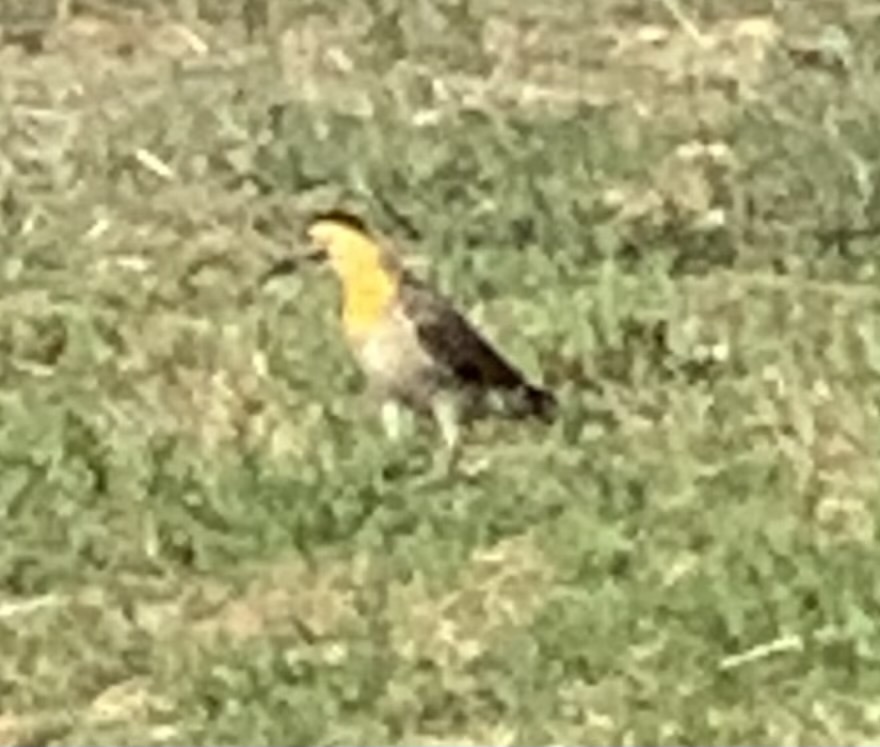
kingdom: Animalia
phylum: Chordata
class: Aves
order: Piciformes
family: Picidae
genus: Colaptes
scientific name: Colaptes campestris
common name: Campo flicker
